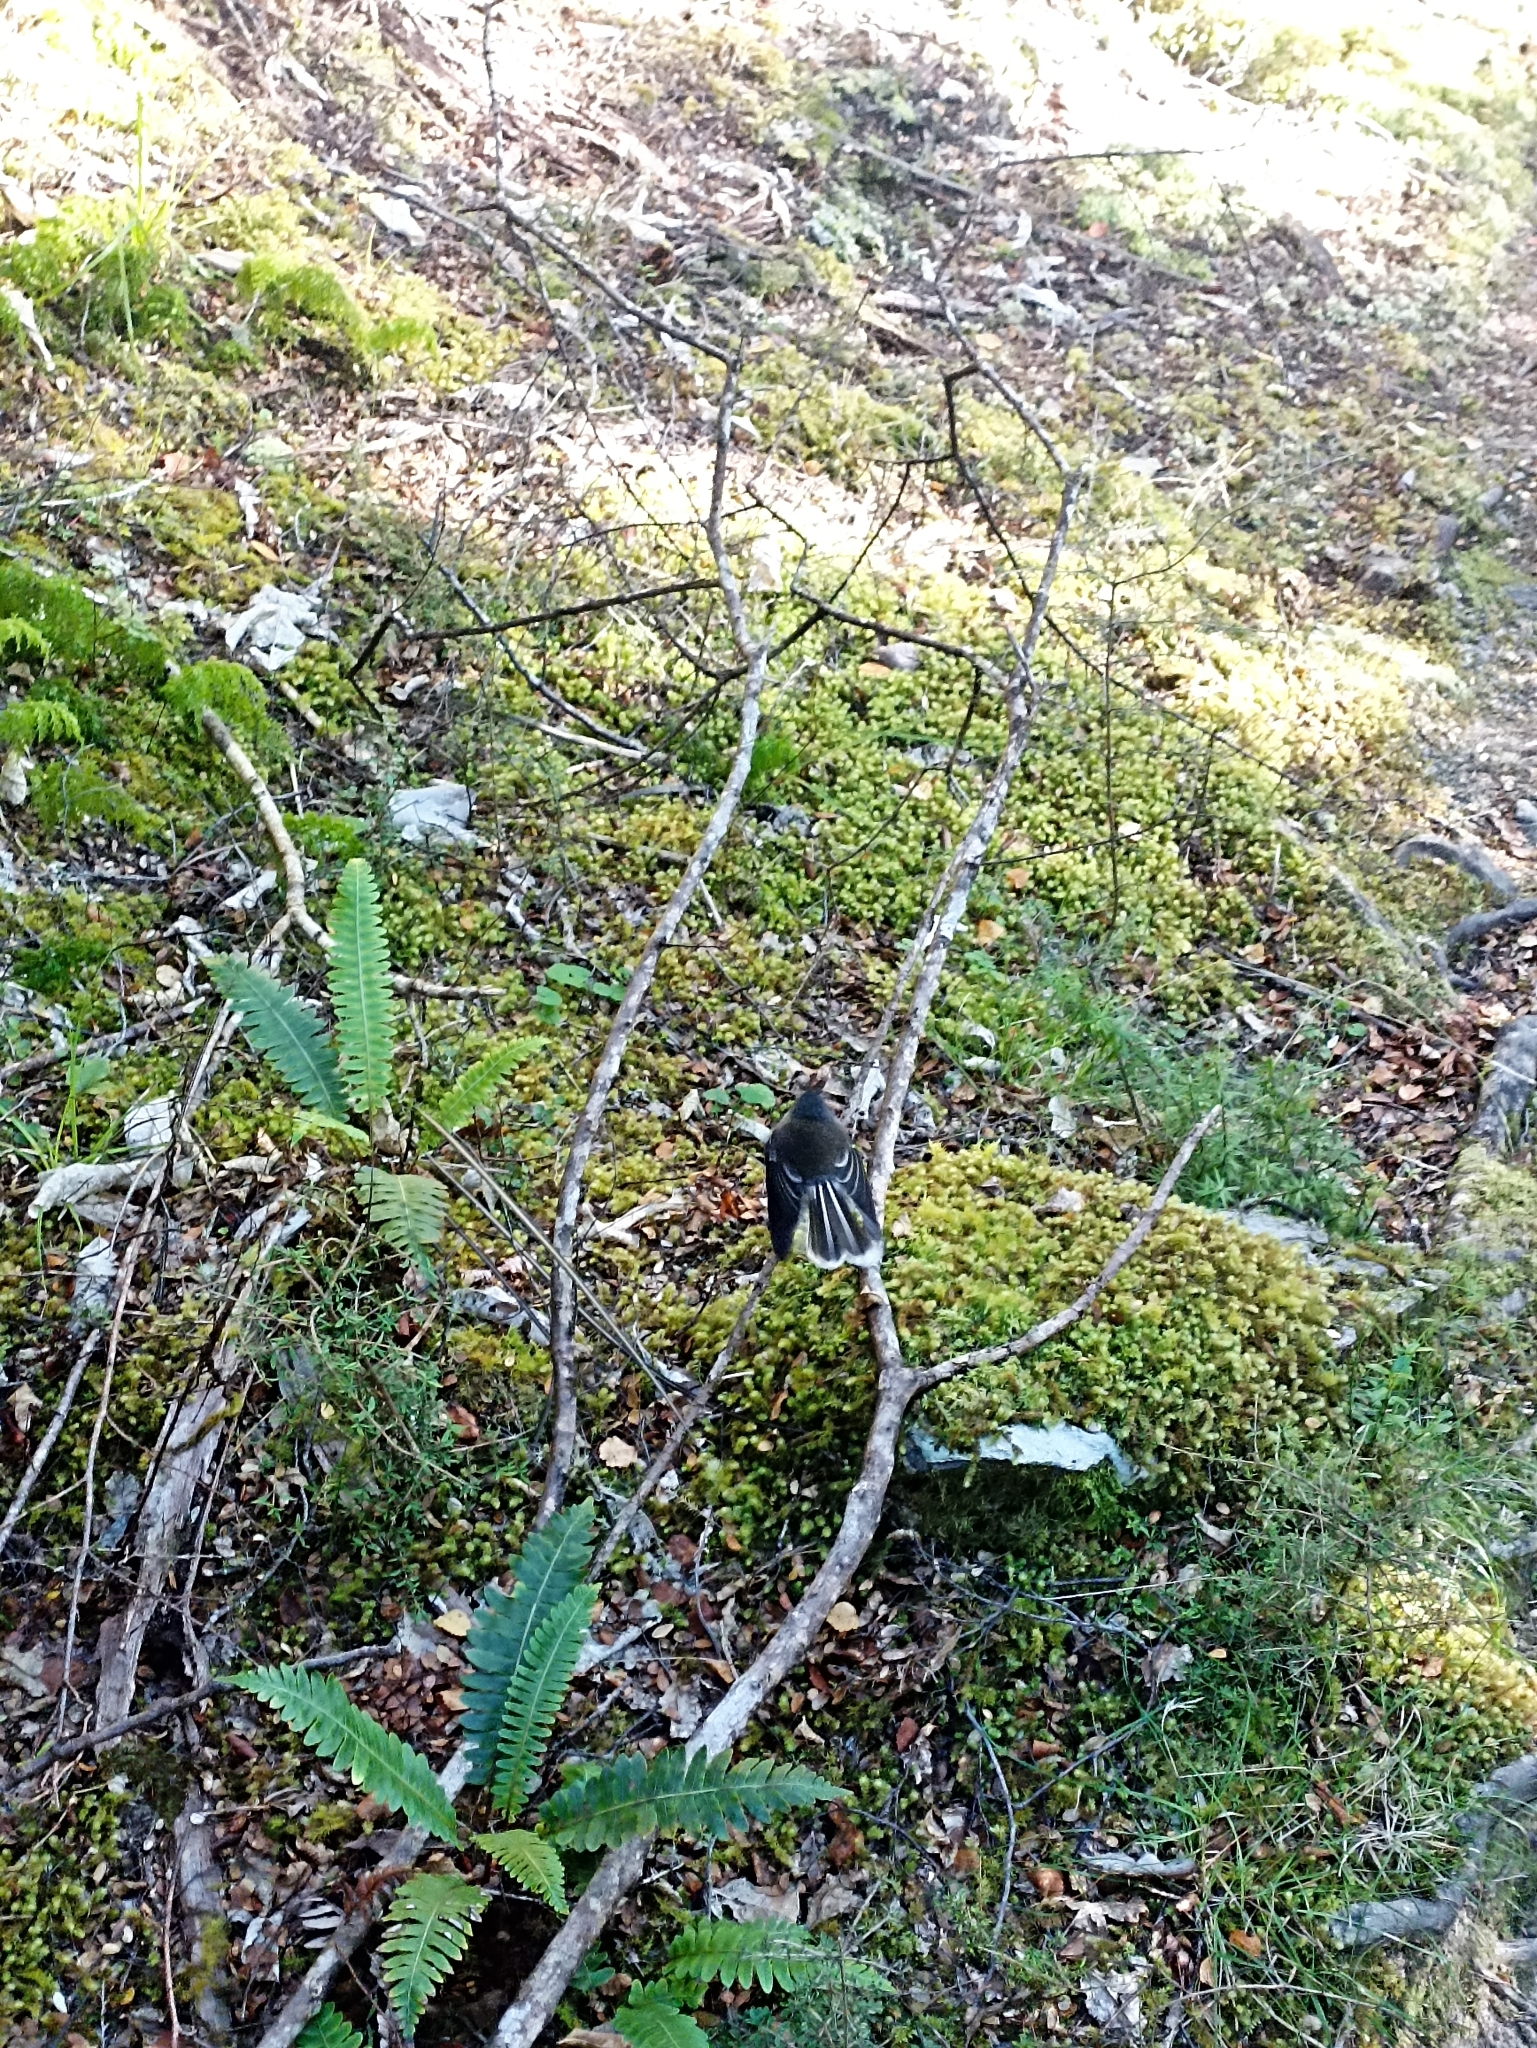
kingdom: Animalia
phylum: Chordata
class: Aves
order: Passeriformes
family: Rhipiduridae
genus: Rhipidura
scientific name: Rhipidura fuliginosa
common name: New zealand fantail
